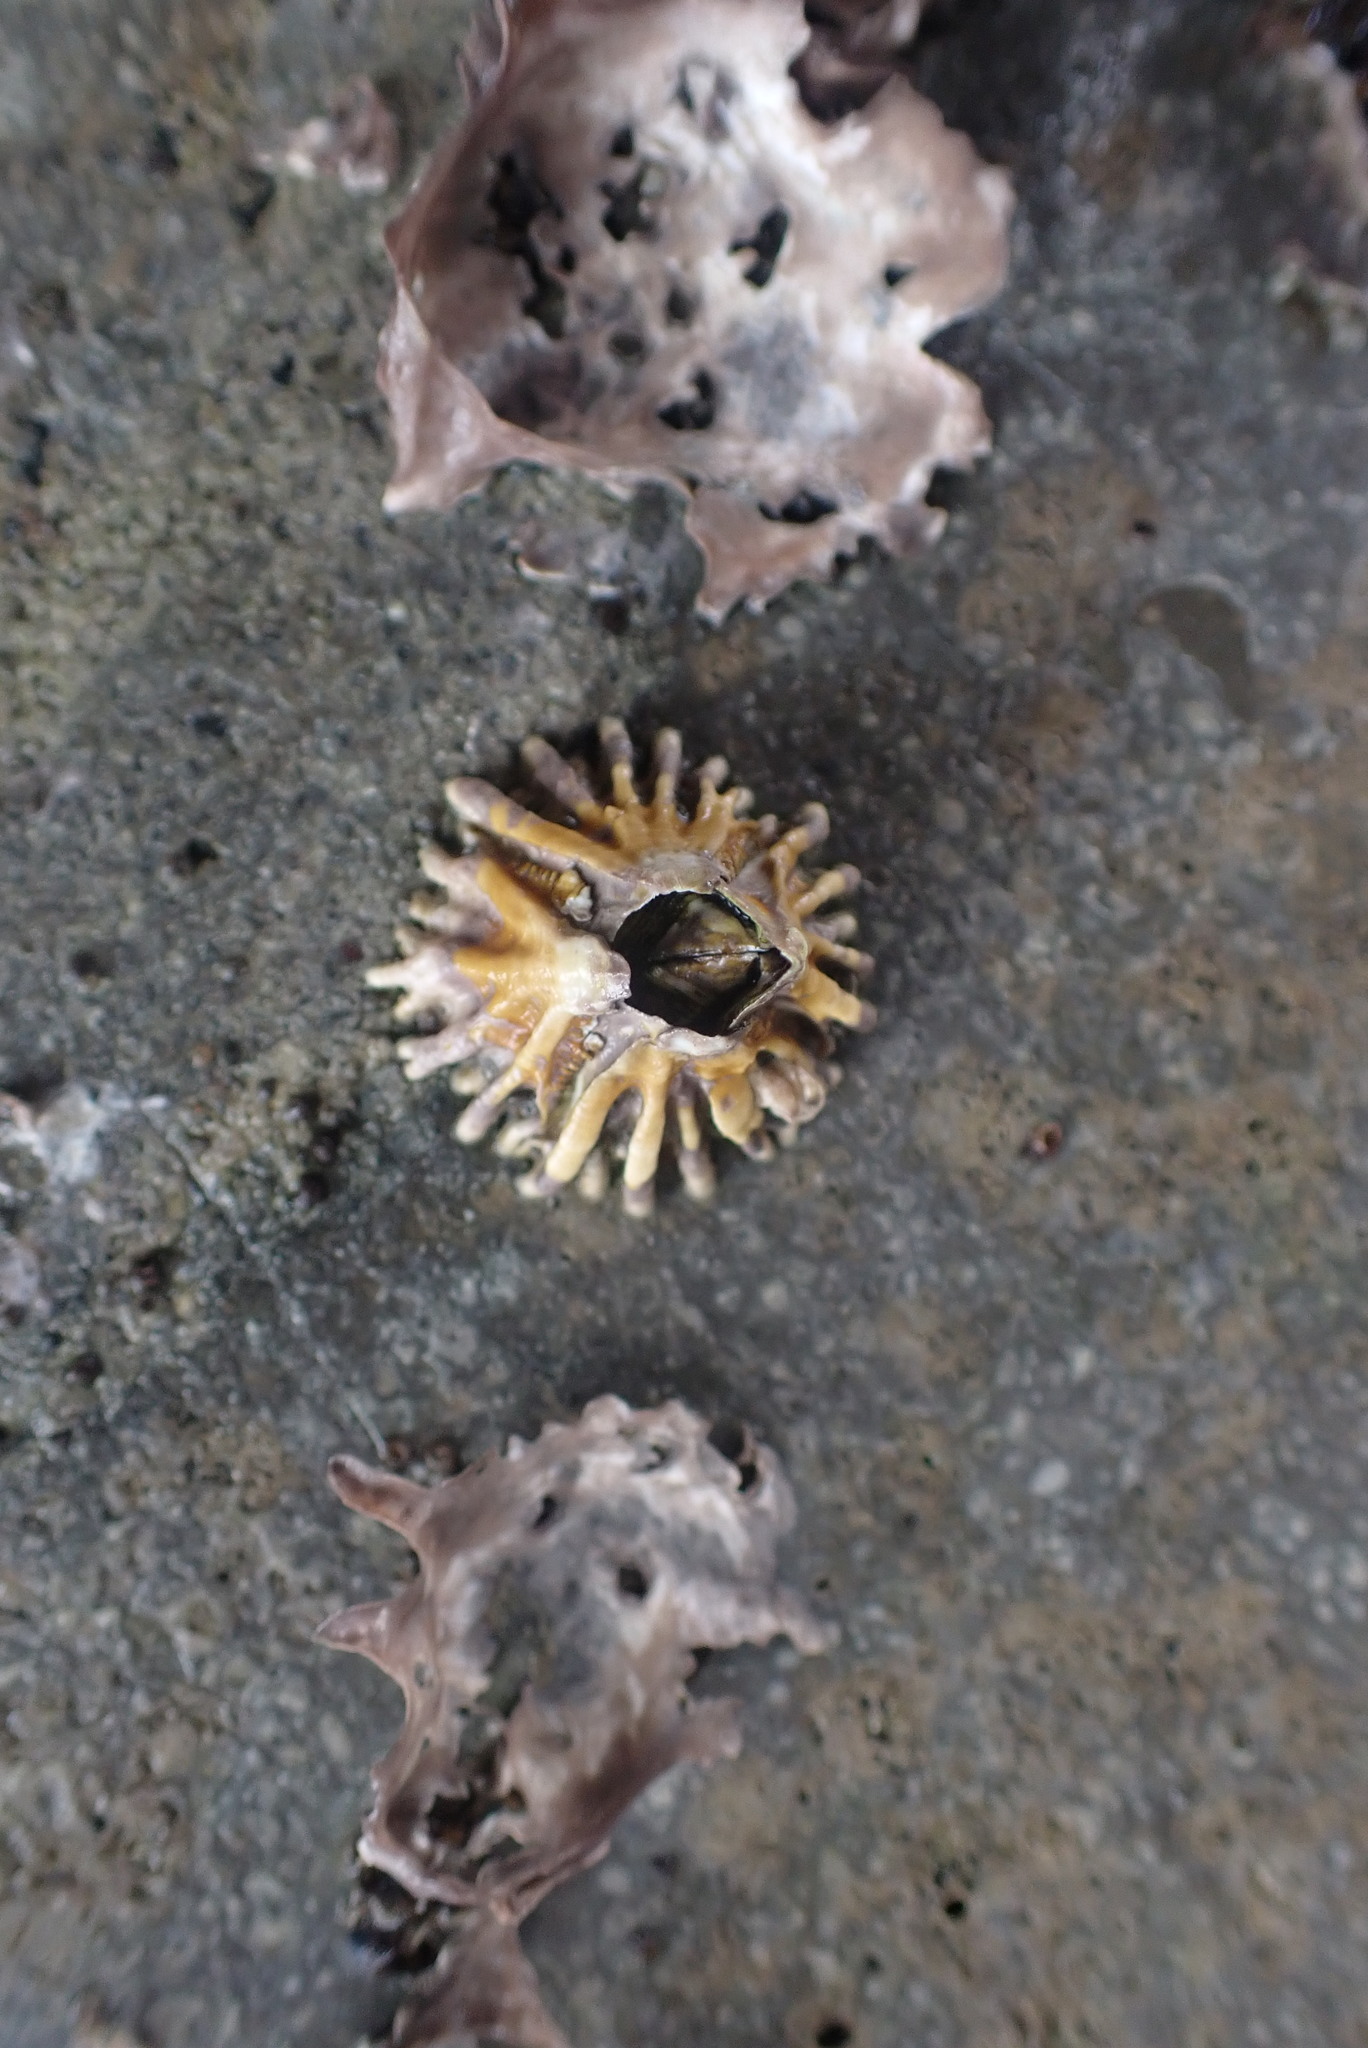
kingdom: Animalia
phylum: Arthropoda
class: Maxillopoda
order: Sessilia
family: Tetraclitidae
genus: Epopella
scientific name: Epopella plicata
